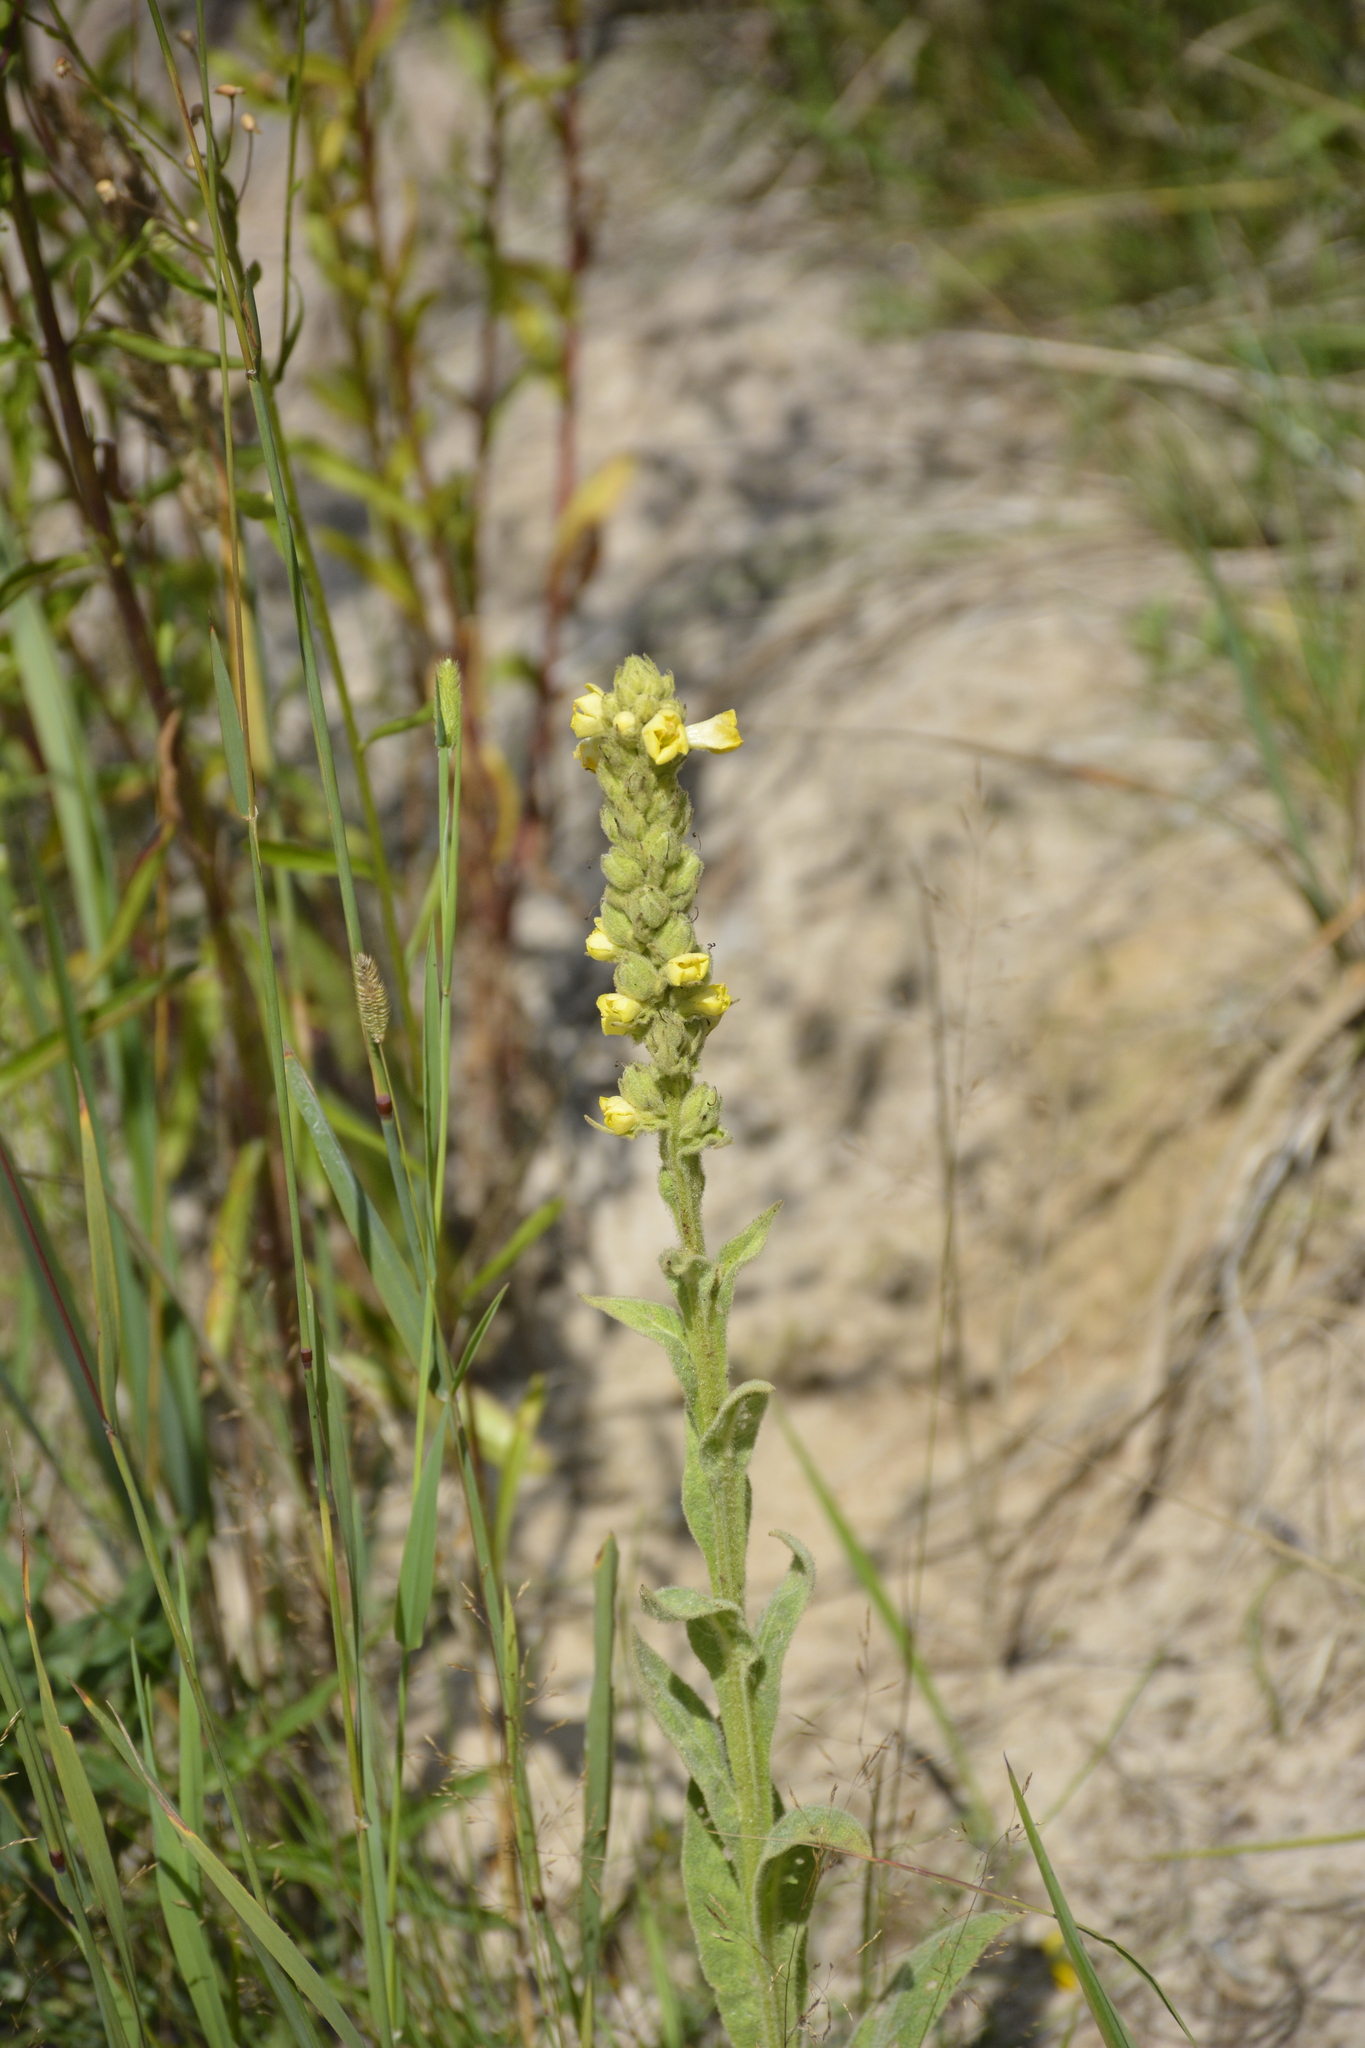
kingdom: Plantae
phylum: Tracheophyta
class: Magnoliopsida
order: Lamiales
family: Scrophulariaceae
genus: Verbascum
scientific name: Verbascum thapsus
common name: Common mullein
